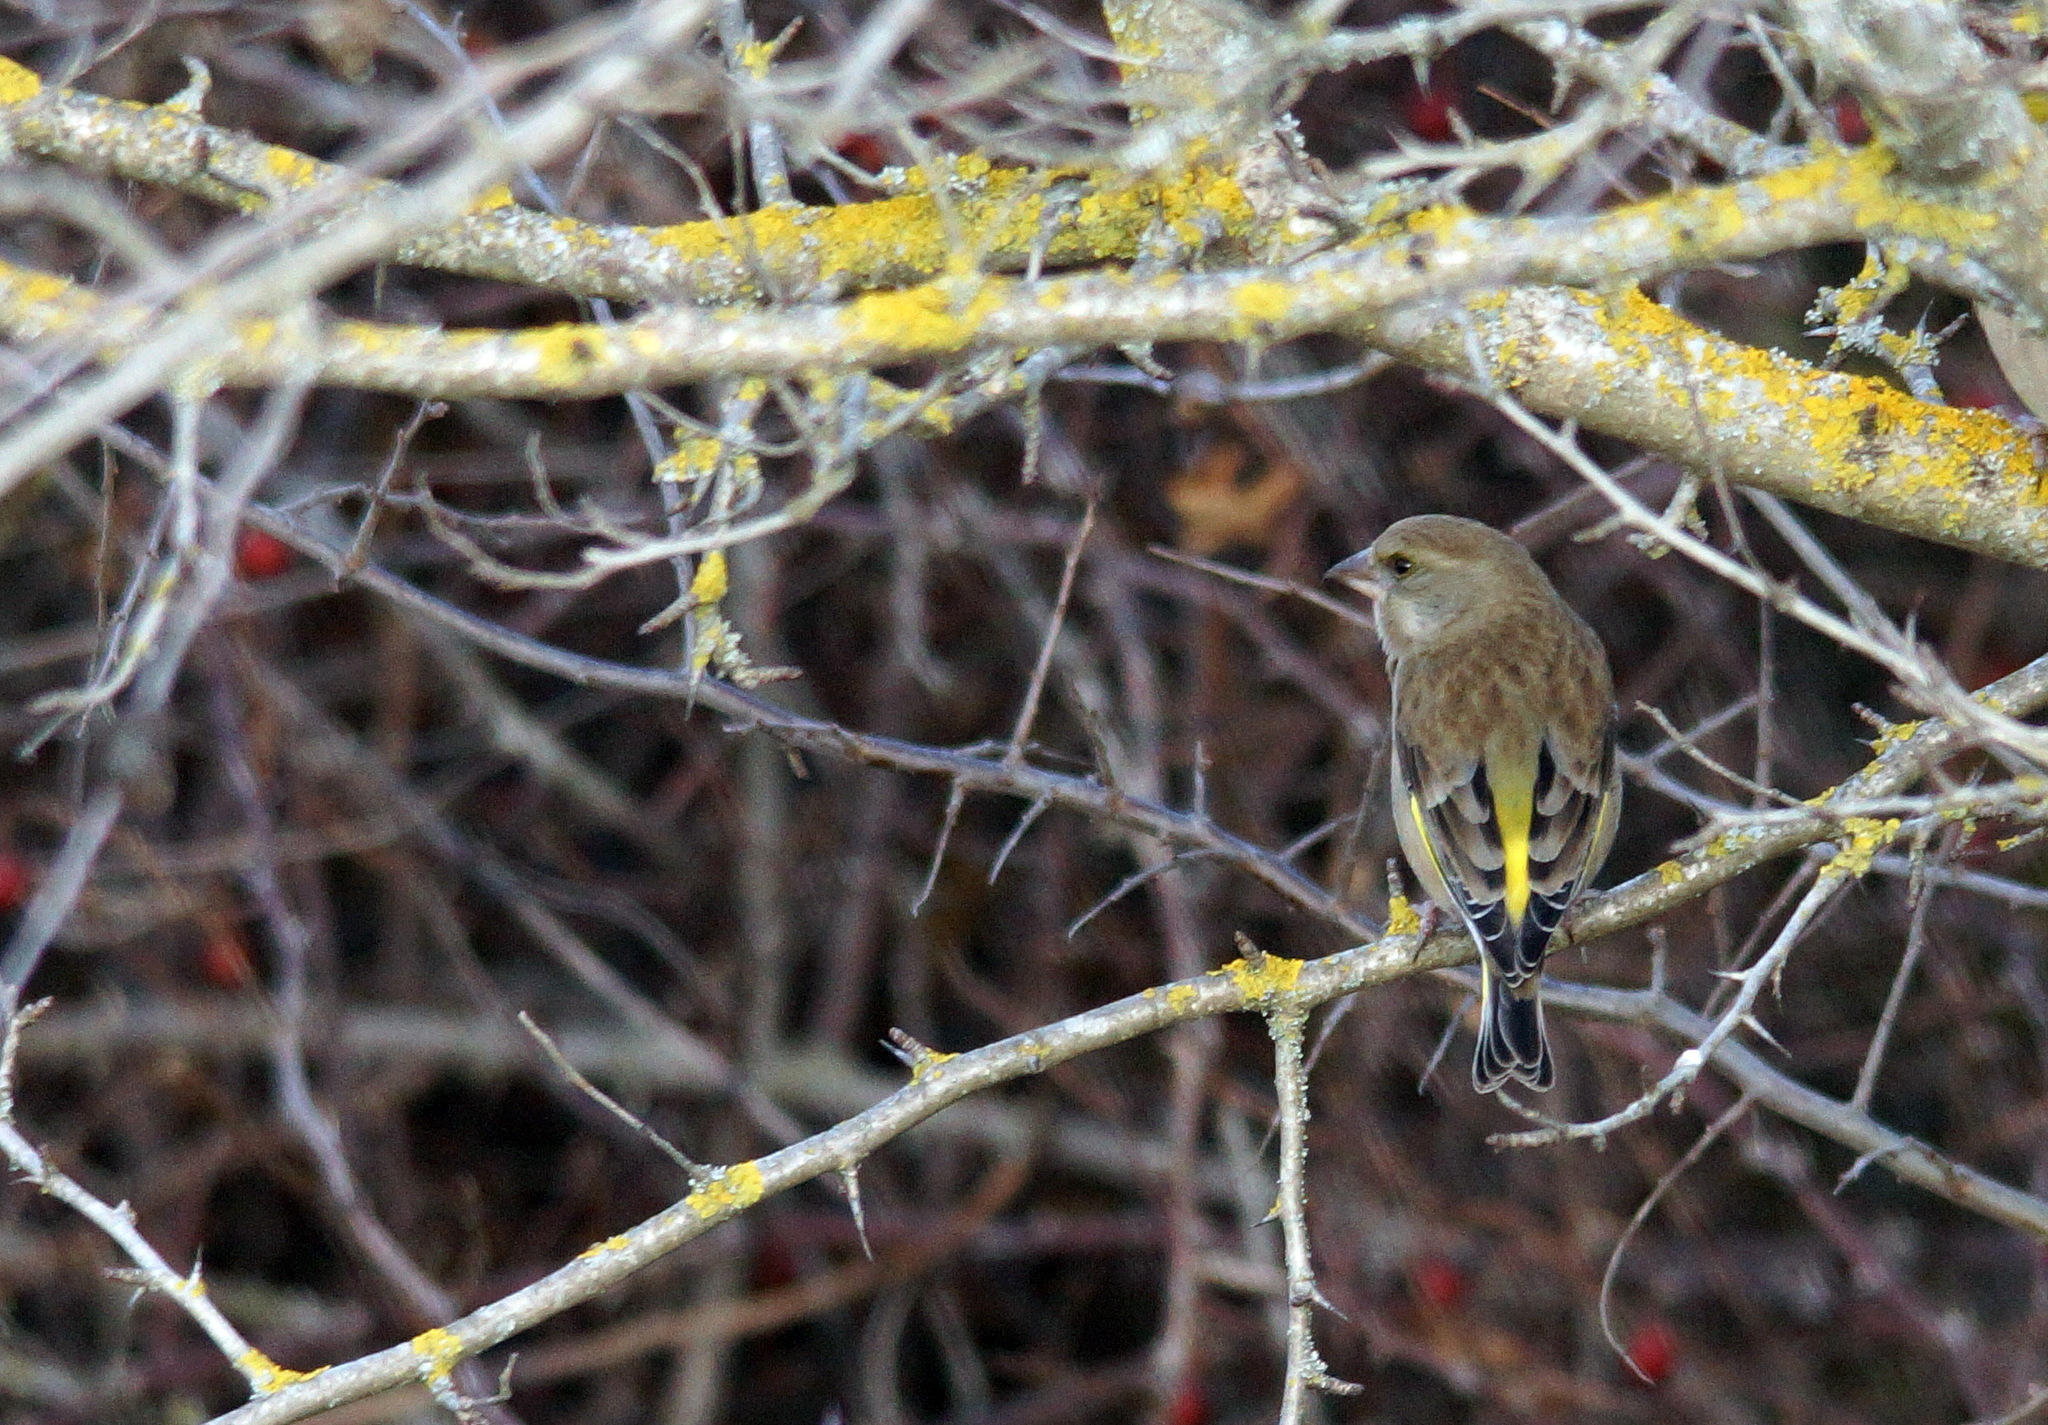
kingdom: Plantae
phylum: Tracheophyta
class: Liliopsida
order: Poales
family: Poaceae
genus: Chloris
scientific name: Chloris chloris
